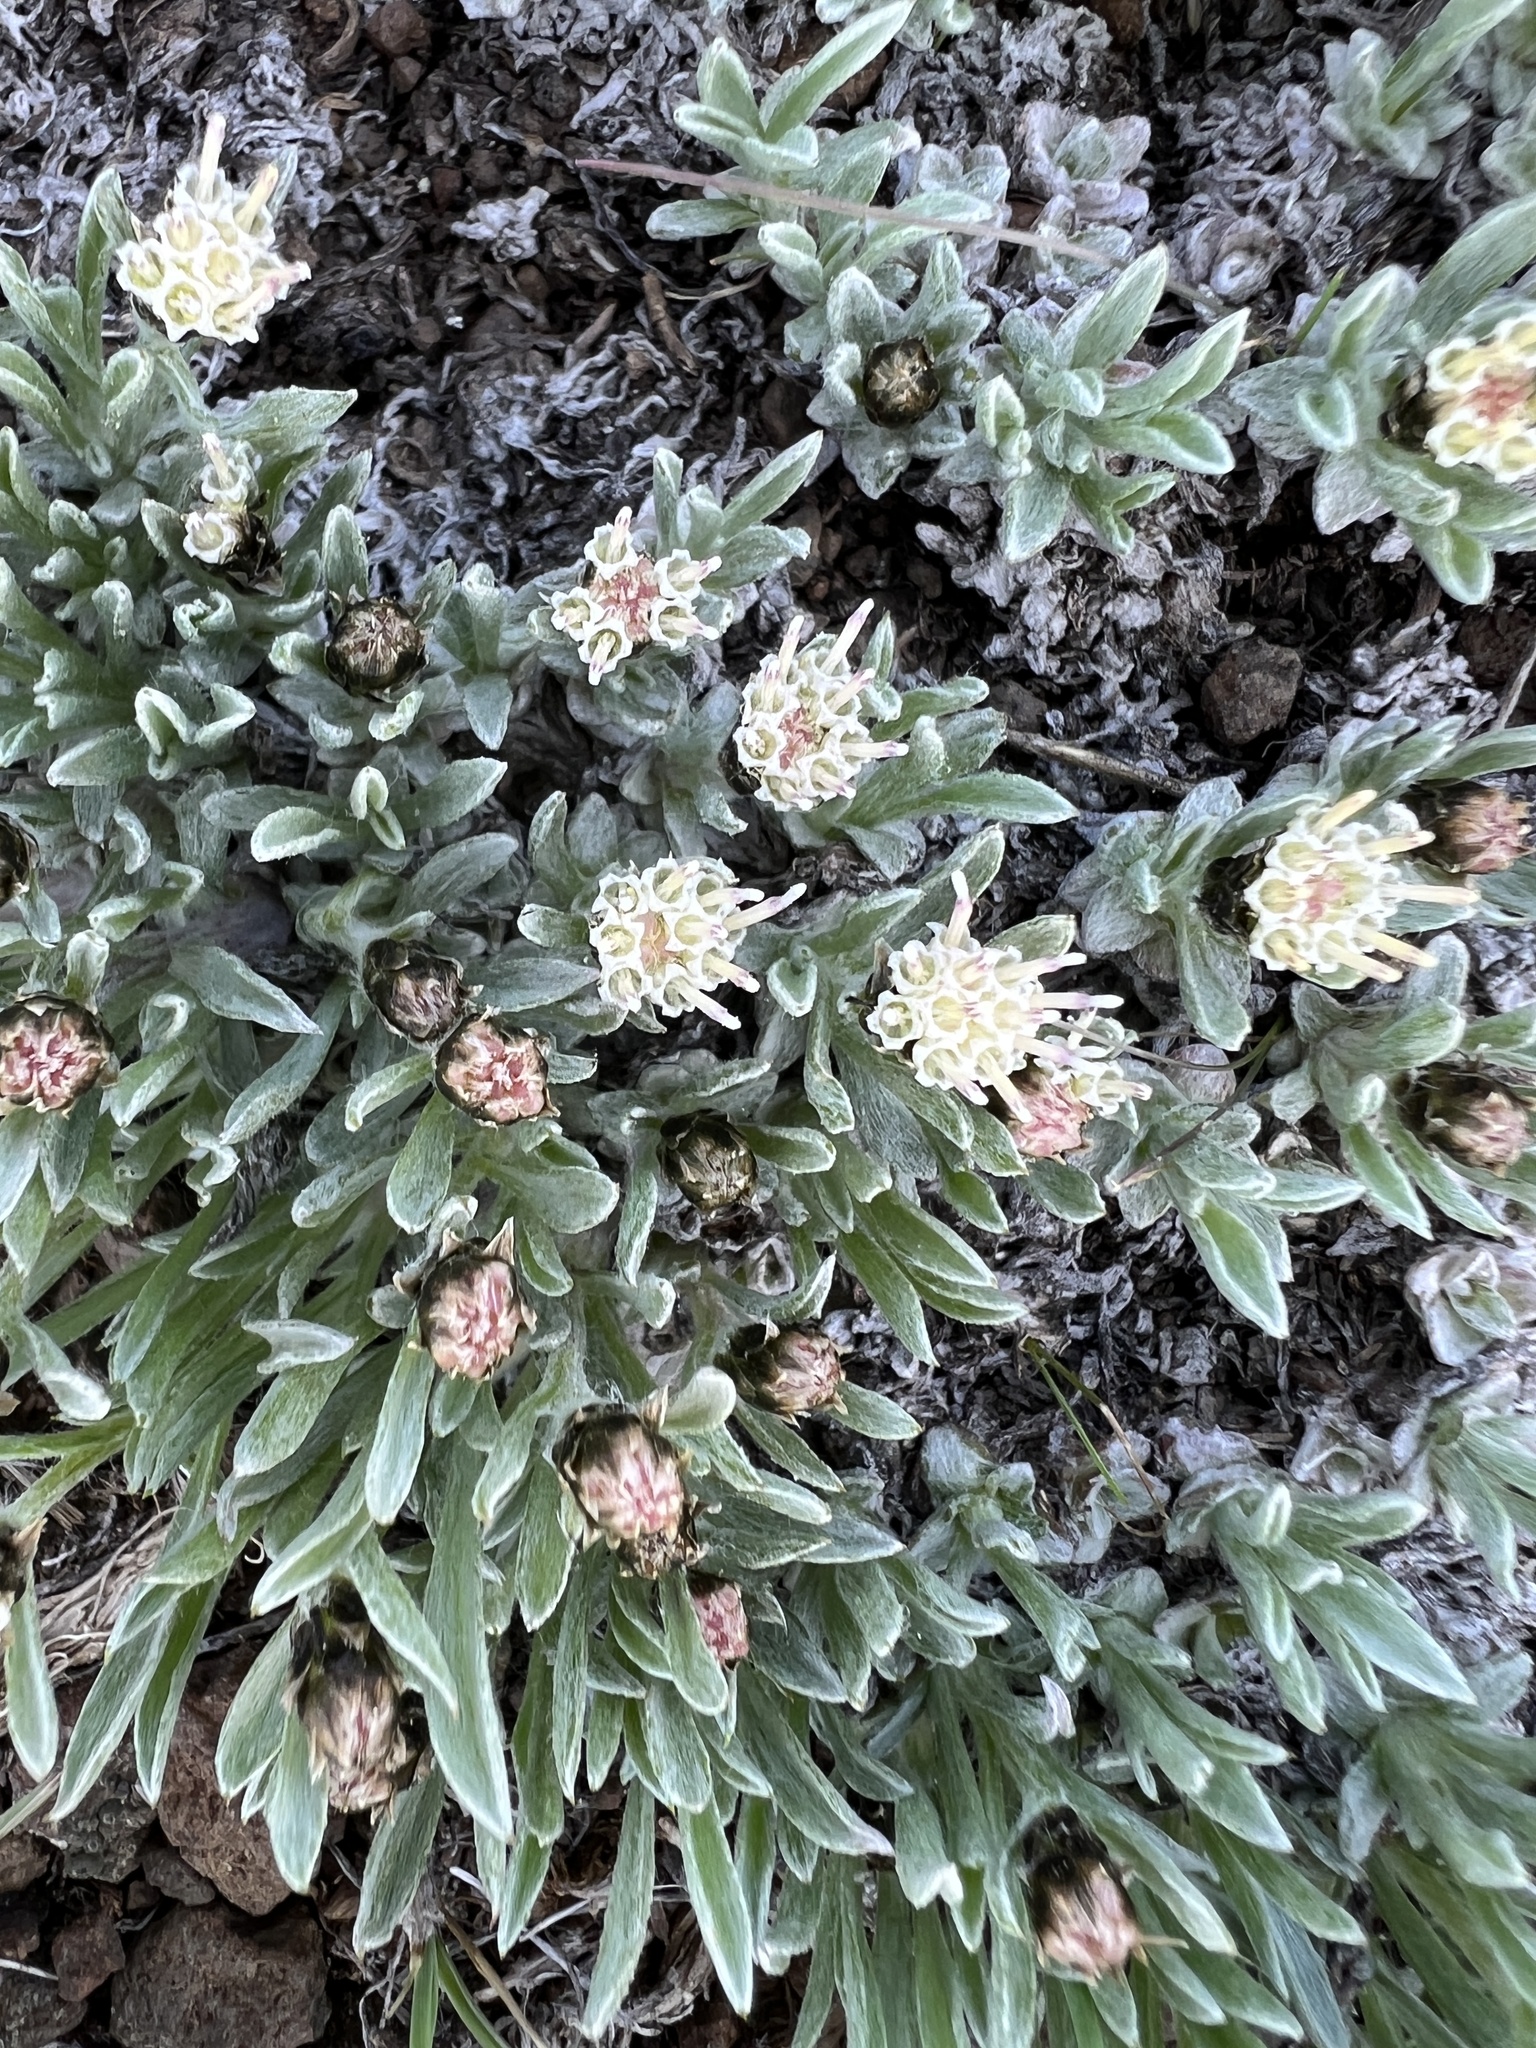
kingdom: Plantae
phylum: Tracheophyta
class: Magnoliopsida
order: Asterales
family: Asteraceae
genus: Antennaria
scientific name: Antennaria dimorpha
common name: Cushion pussytoes
